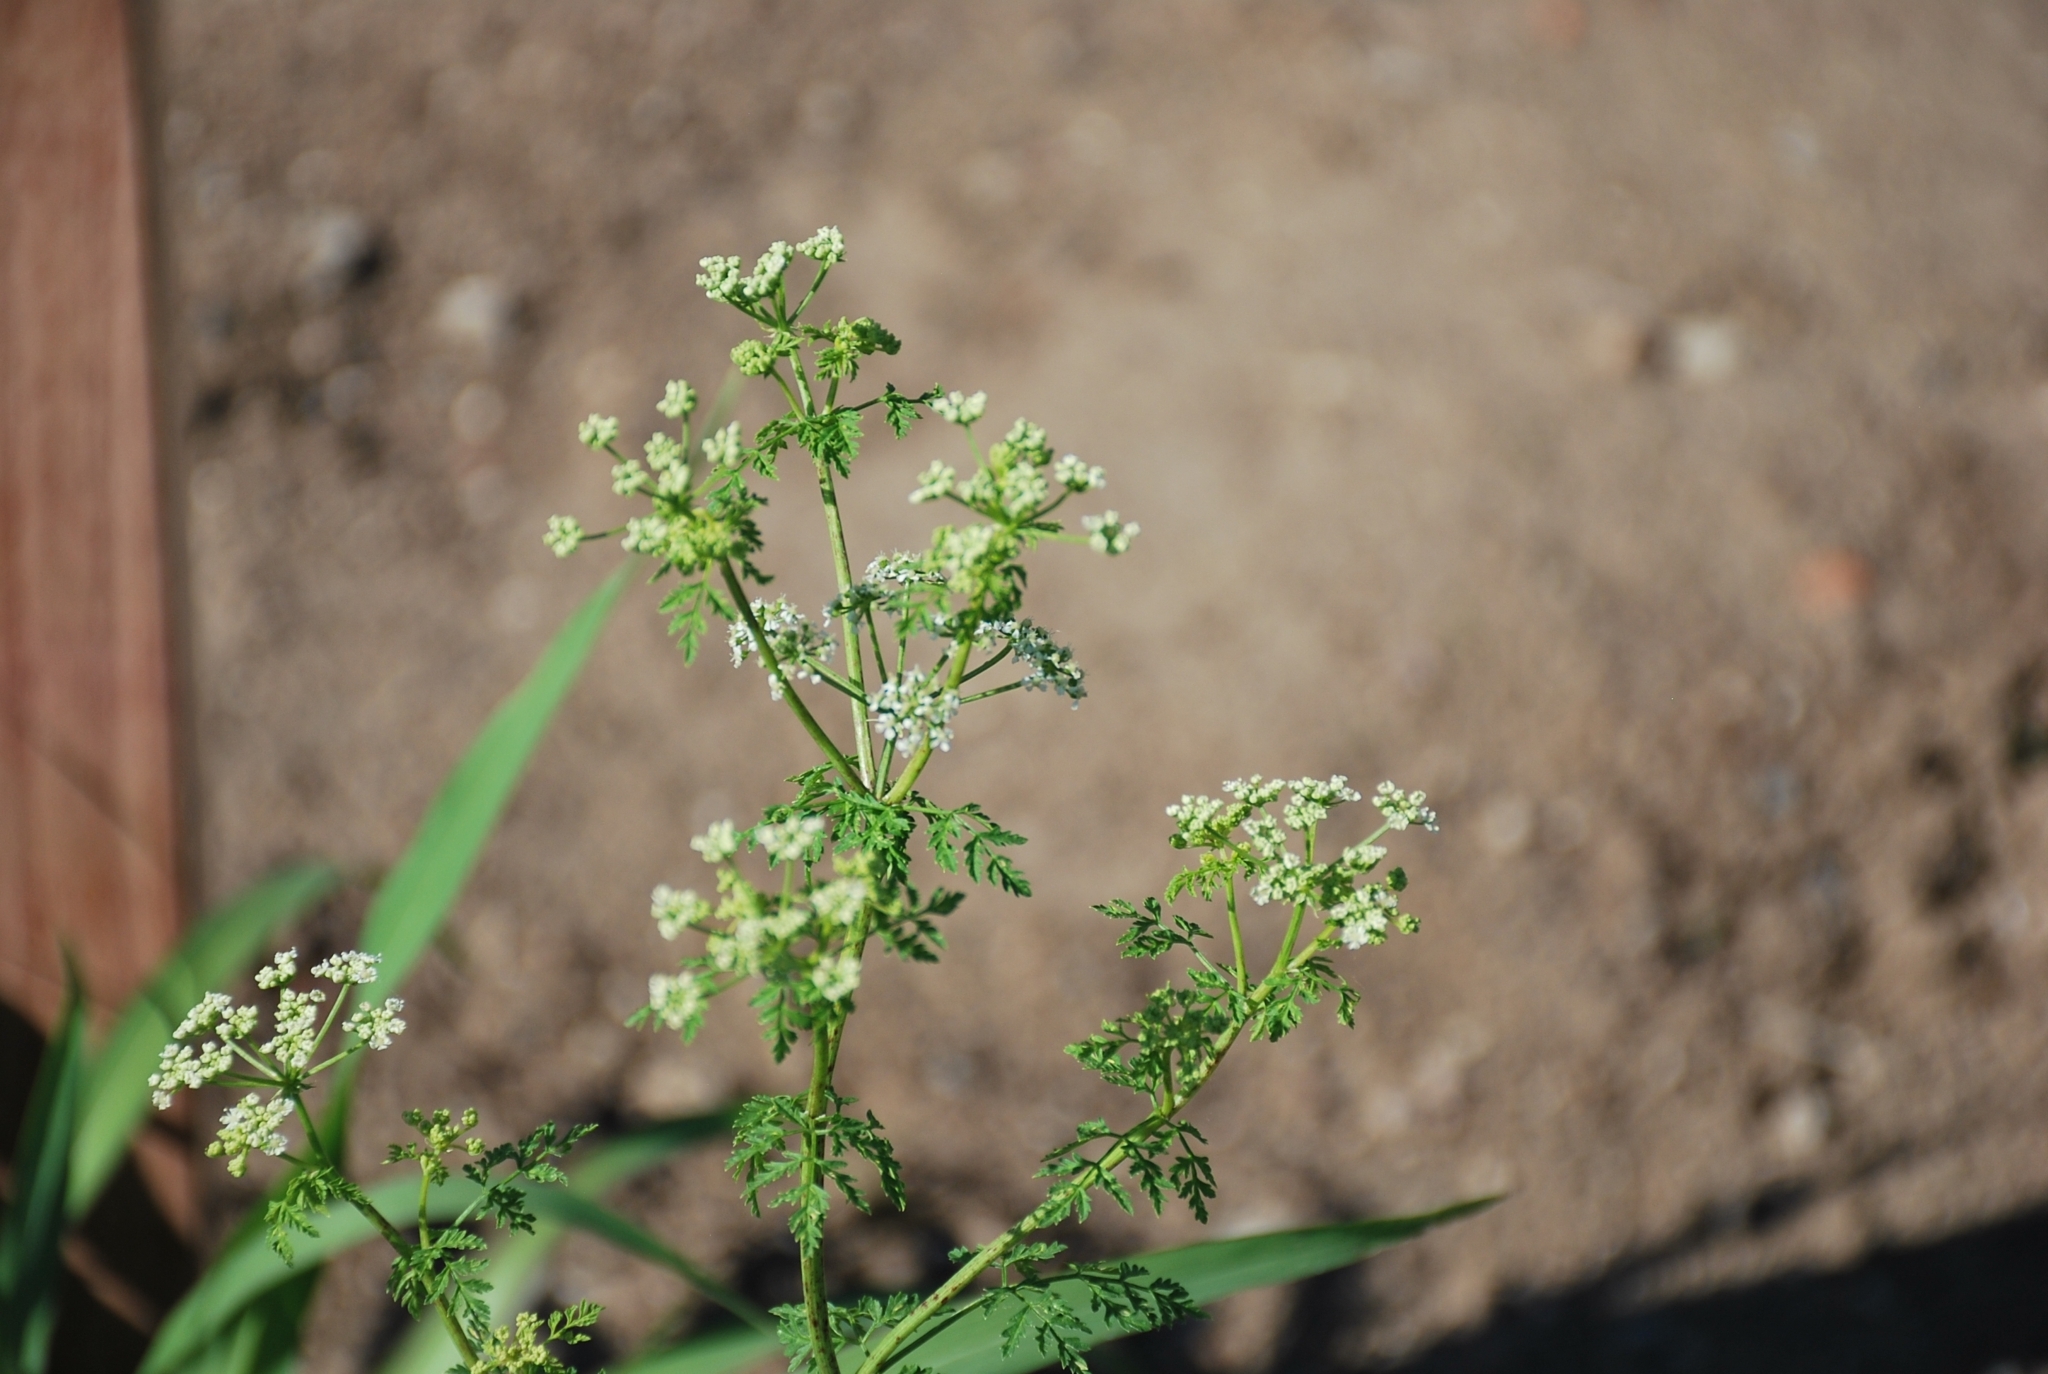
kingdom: Plantae
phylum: Tracheophyta
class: Magnoliopsida
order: Apiales
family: Apiaceae
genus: Conium
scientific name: Conium maculatum
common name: Hemlock
